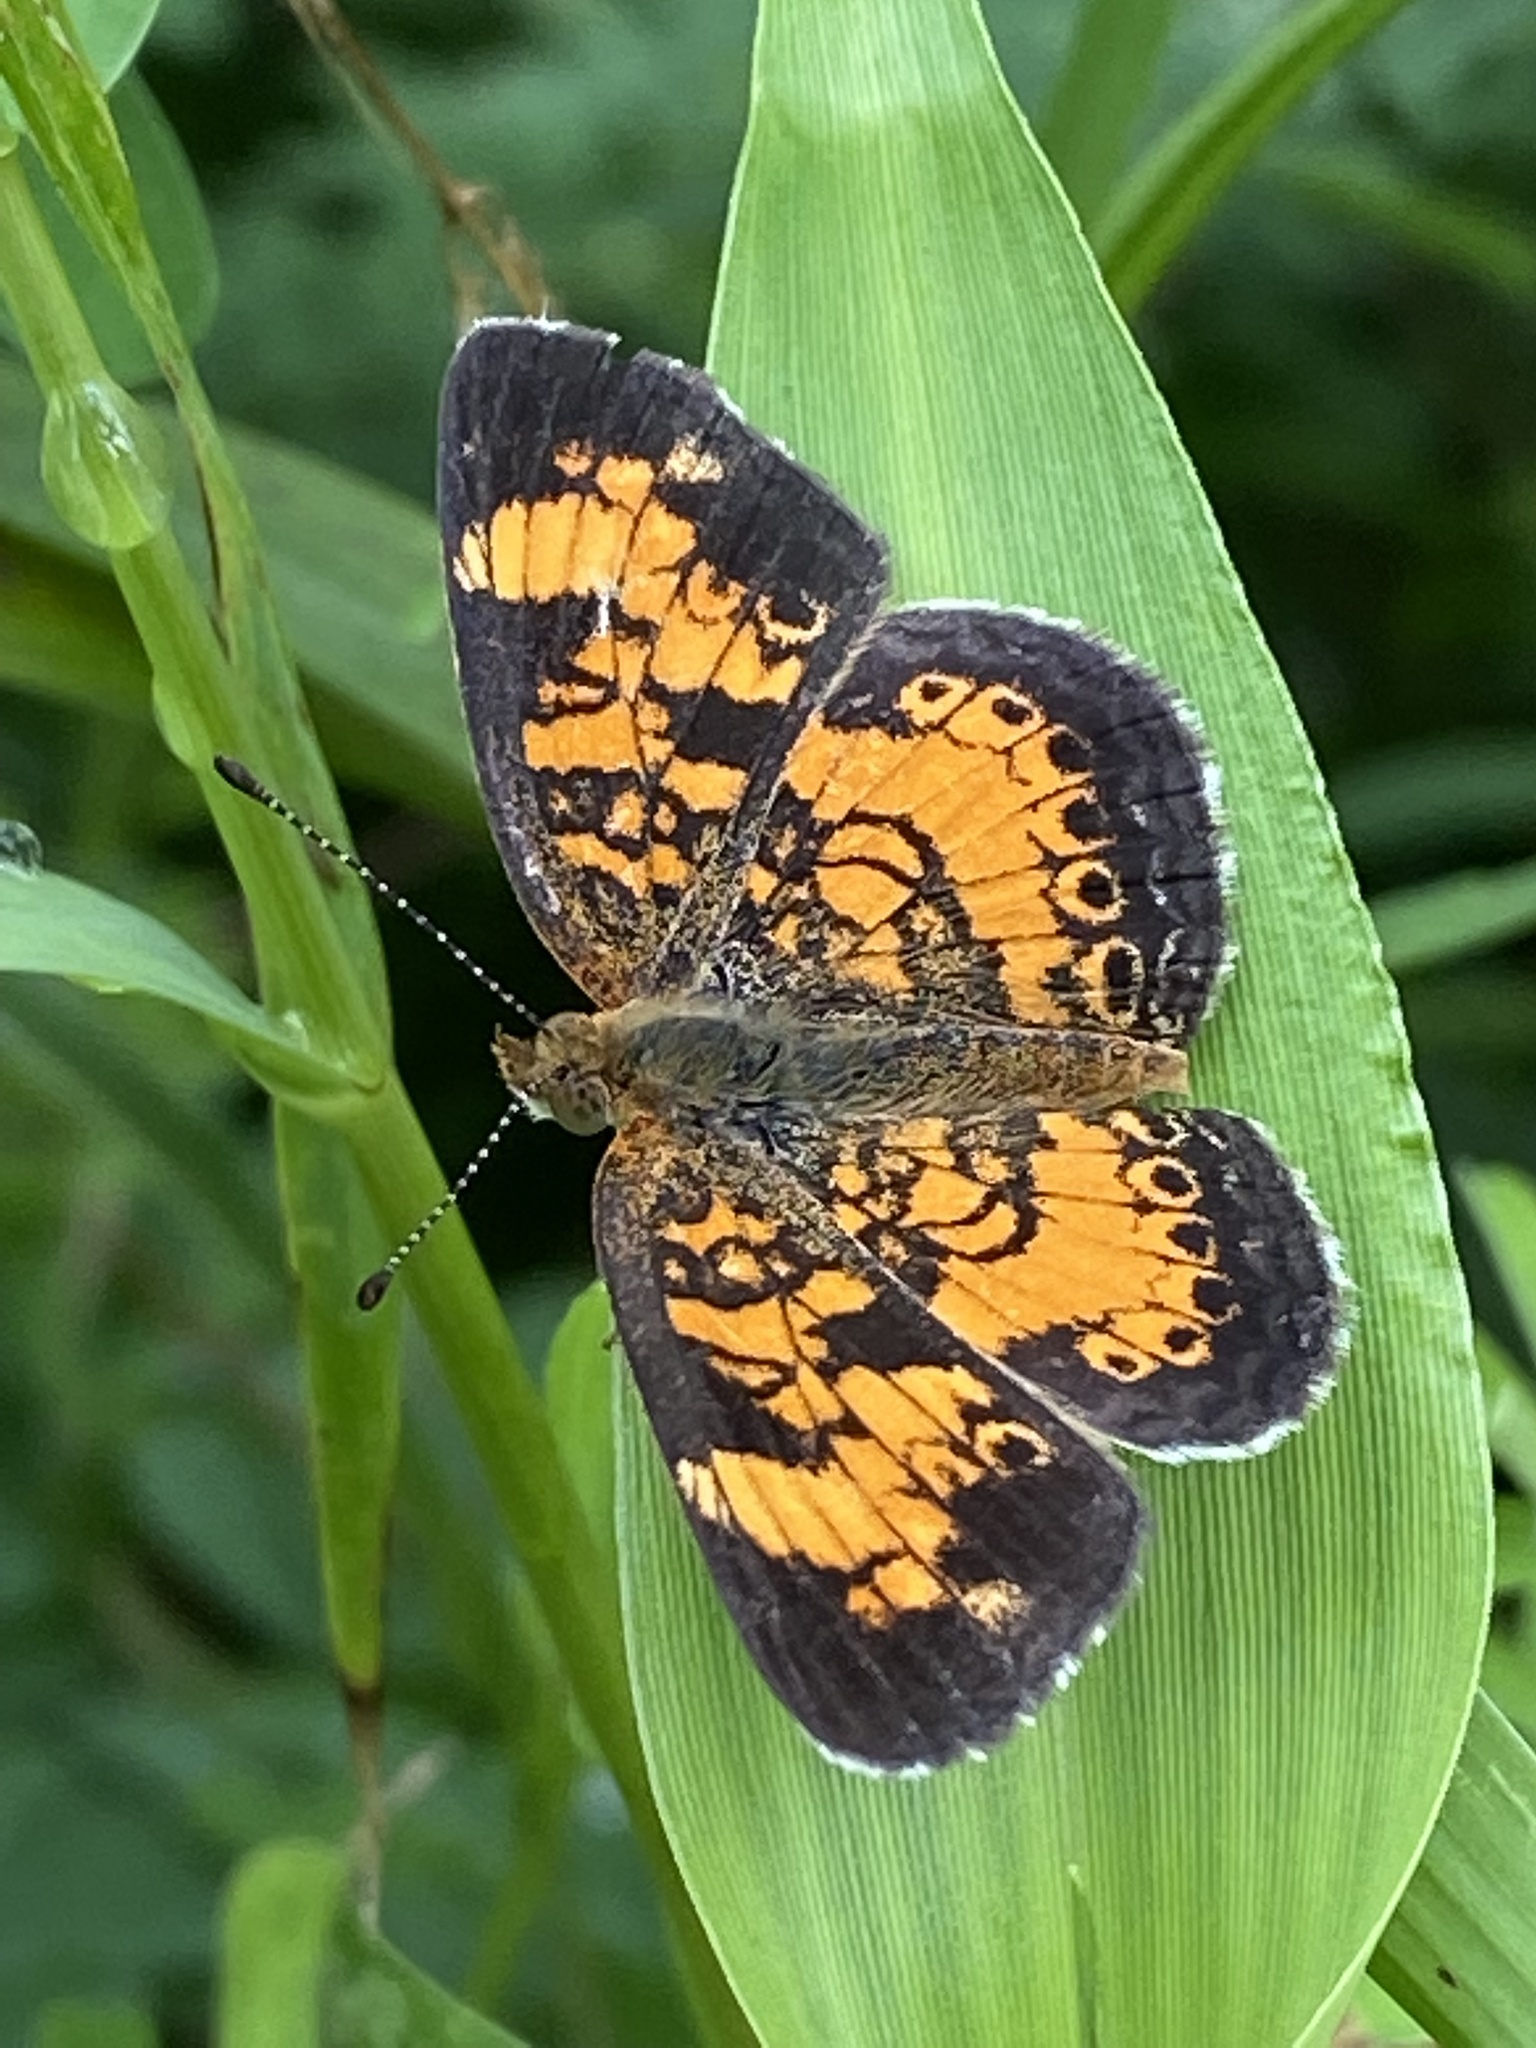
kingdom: Animalia
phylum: Arthropoda
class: Insecta
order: Lepidoptera
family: Nymphalidae
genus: Phyciodes
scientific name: Phyciodes tharos
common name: Pearl crescent
